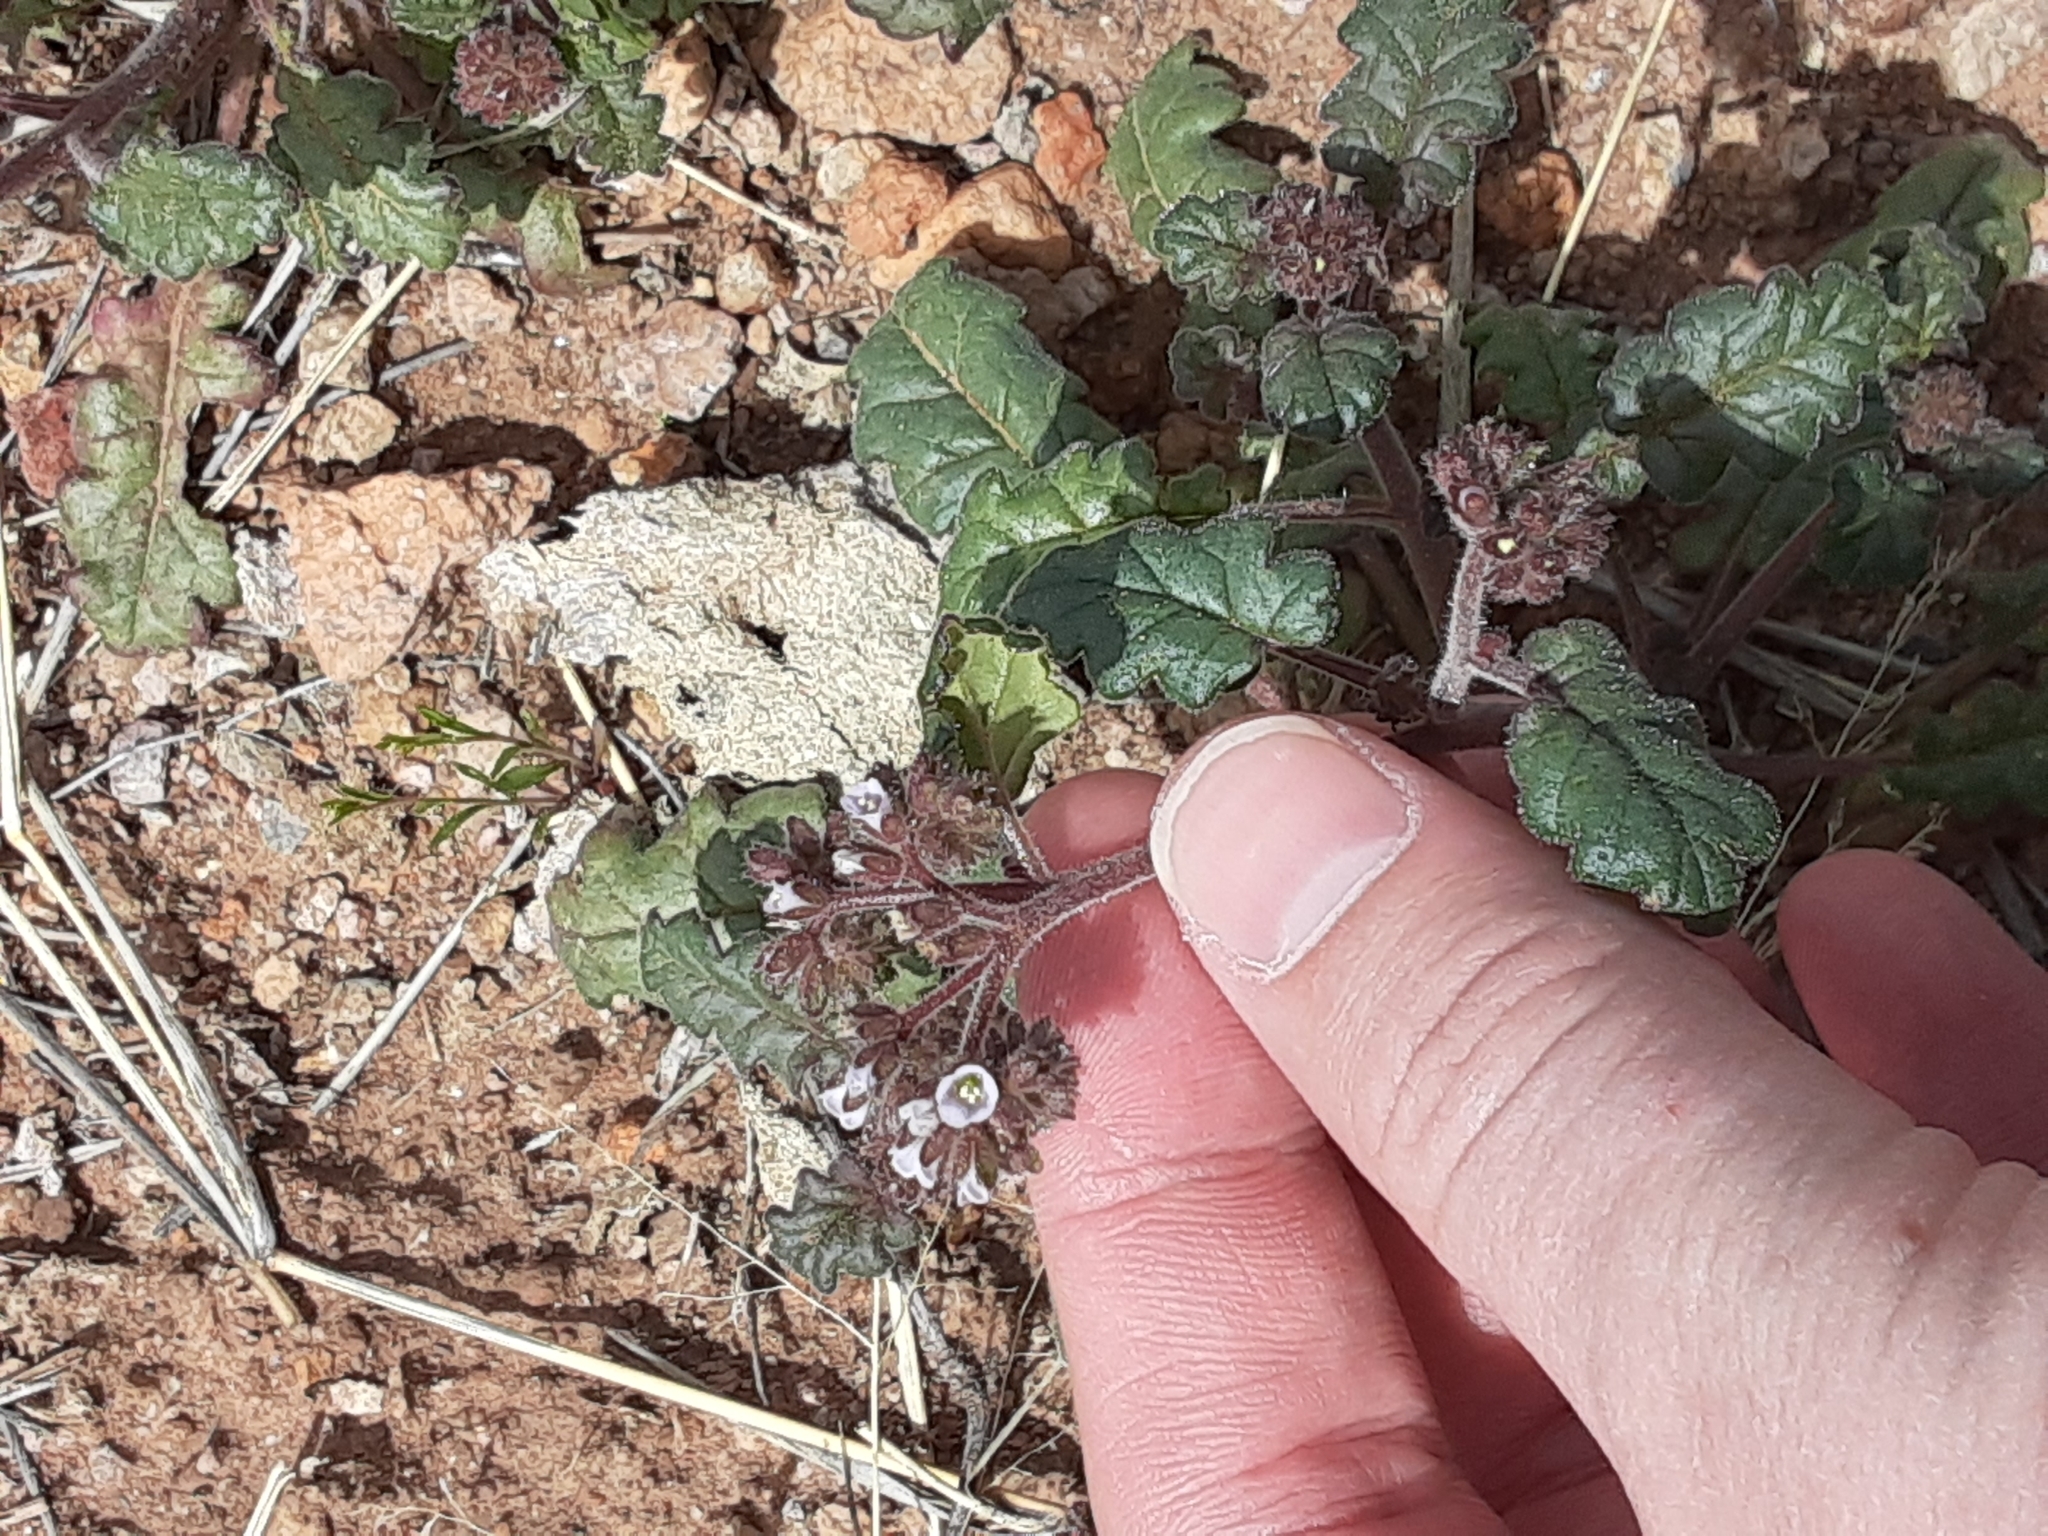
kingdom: Plantae
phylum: Tracheophyta
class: Magnoliopsida
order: Boraginales
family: Hydrophyllaceae
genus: Phacelia
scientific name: Phacelia coerulea
